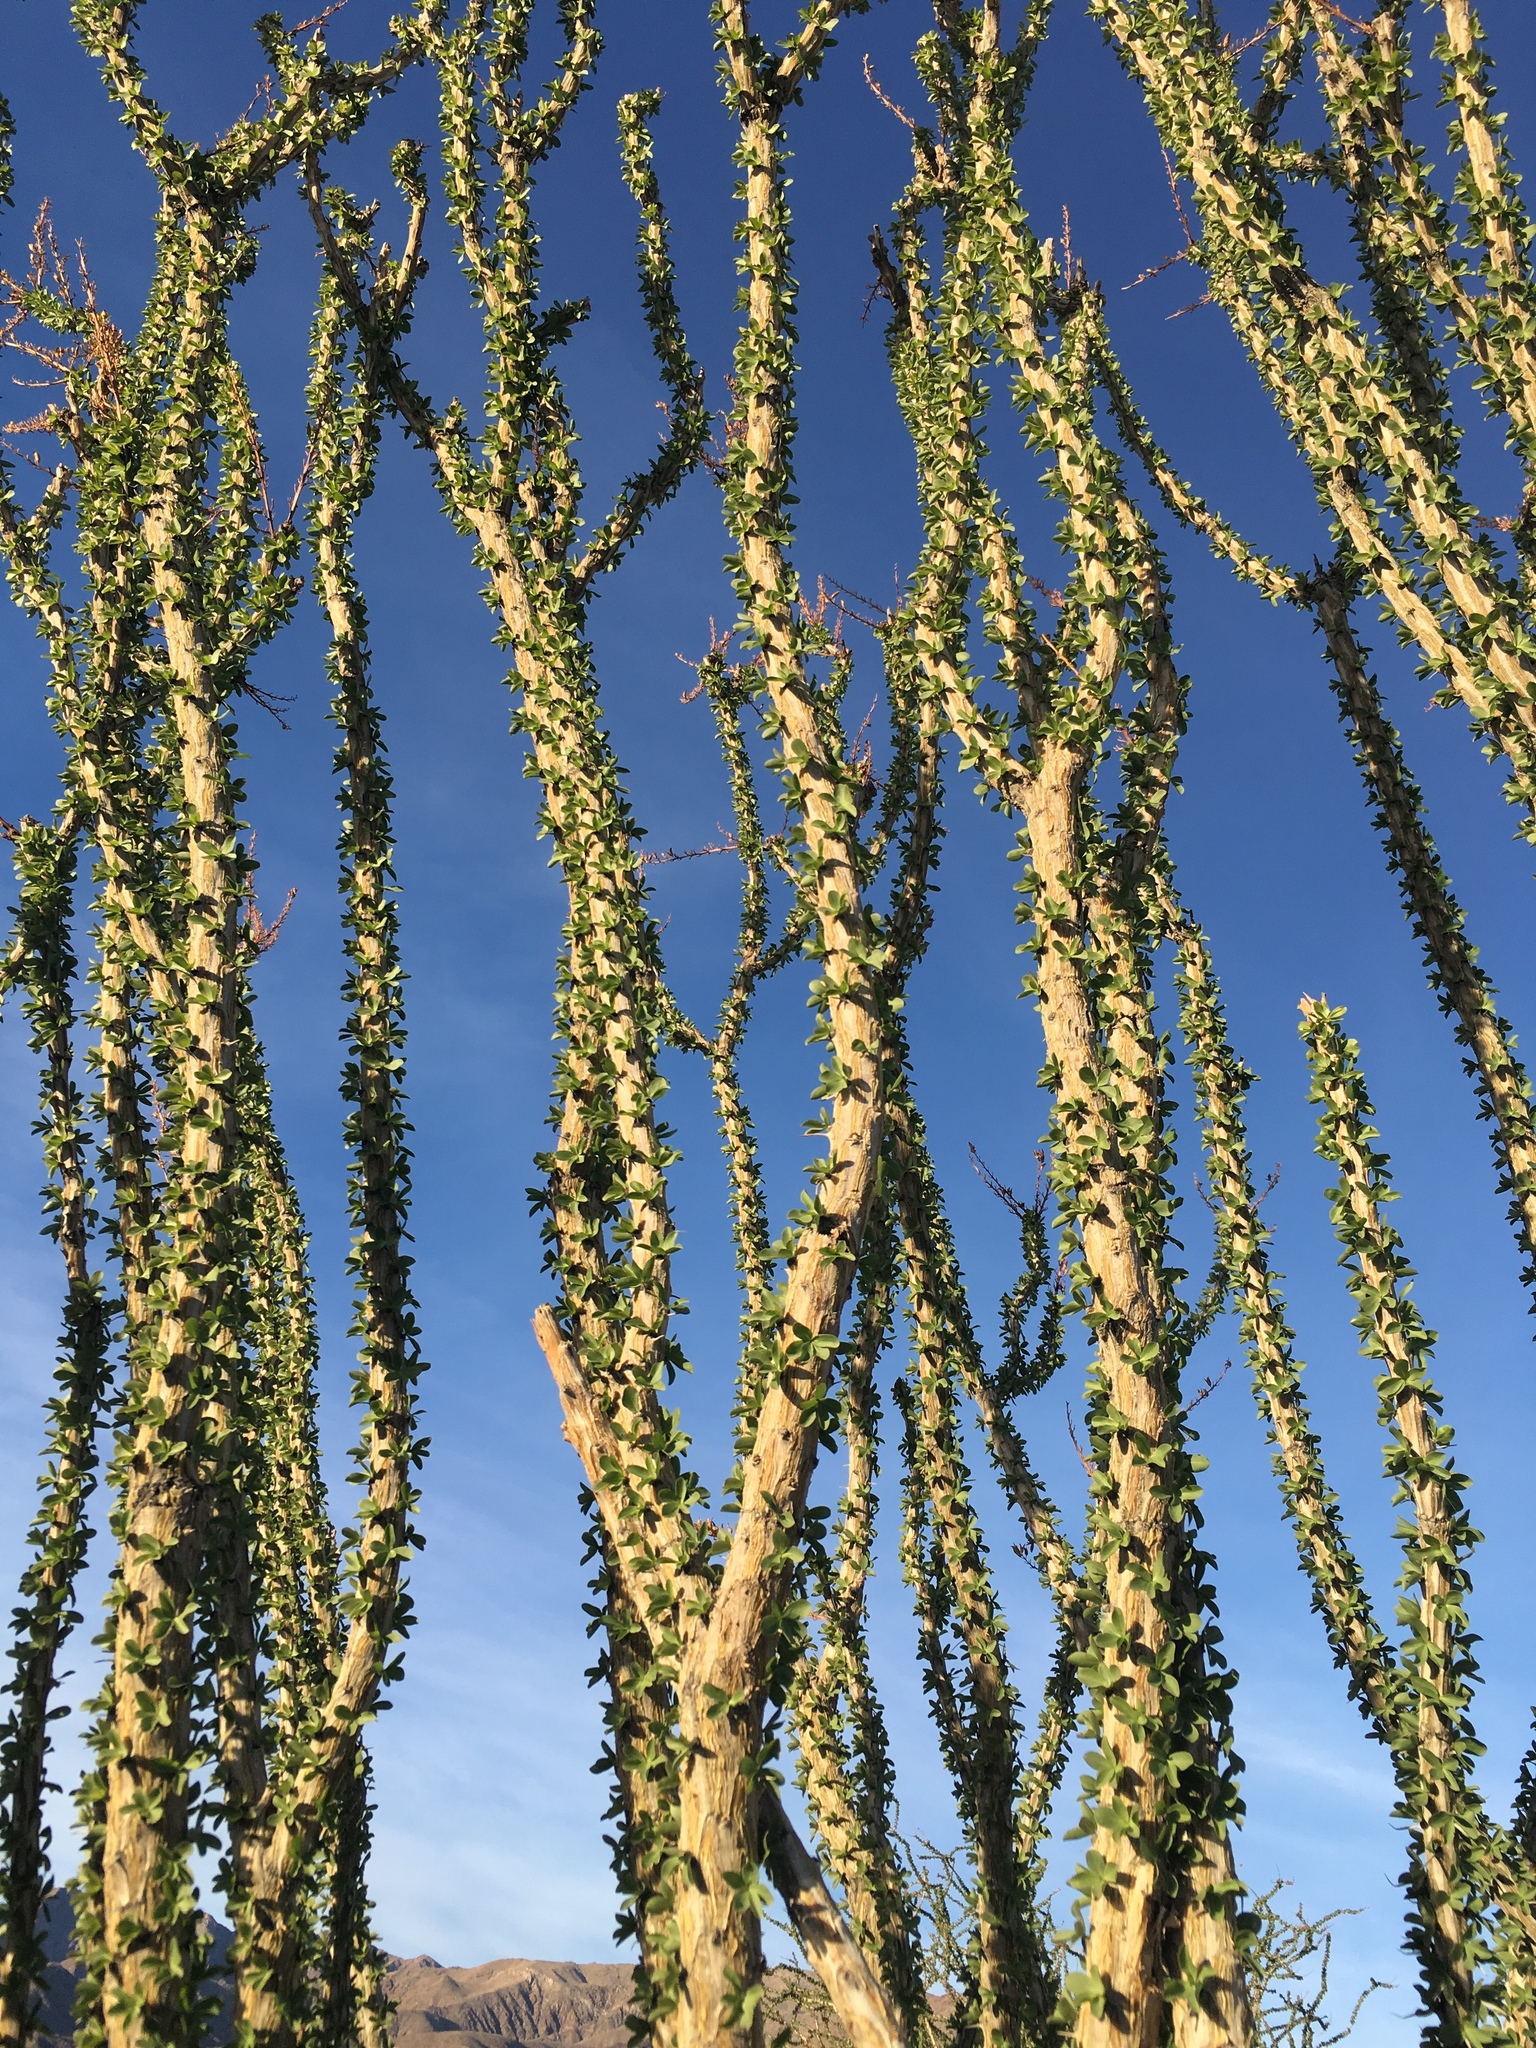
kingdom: Plantae
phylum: Tracheophyta
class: Magnoliopsida
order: Ericales
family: Fouquieriaceae
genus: Fouquieria
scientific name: Fouquieria splendens
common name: Vine-cactus
